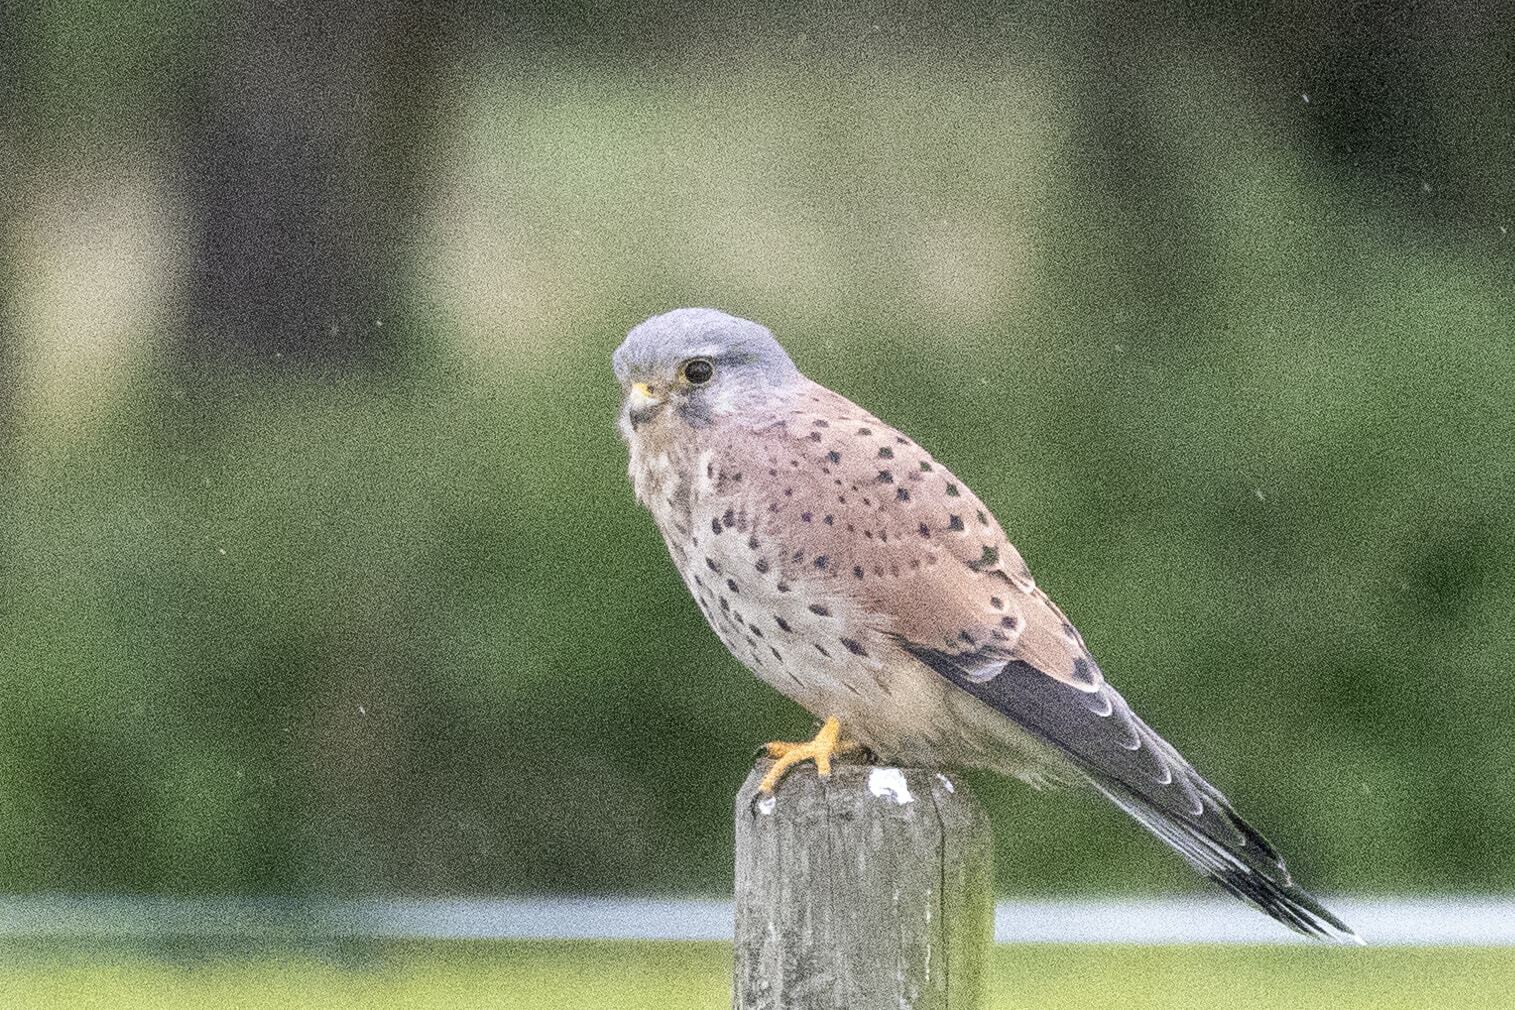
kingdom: Animalia
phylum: Chordata
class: Aves
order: Falconiformes
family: Falconidae
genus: Falco
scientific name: Falco tinnunculus
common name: Common kestrel
